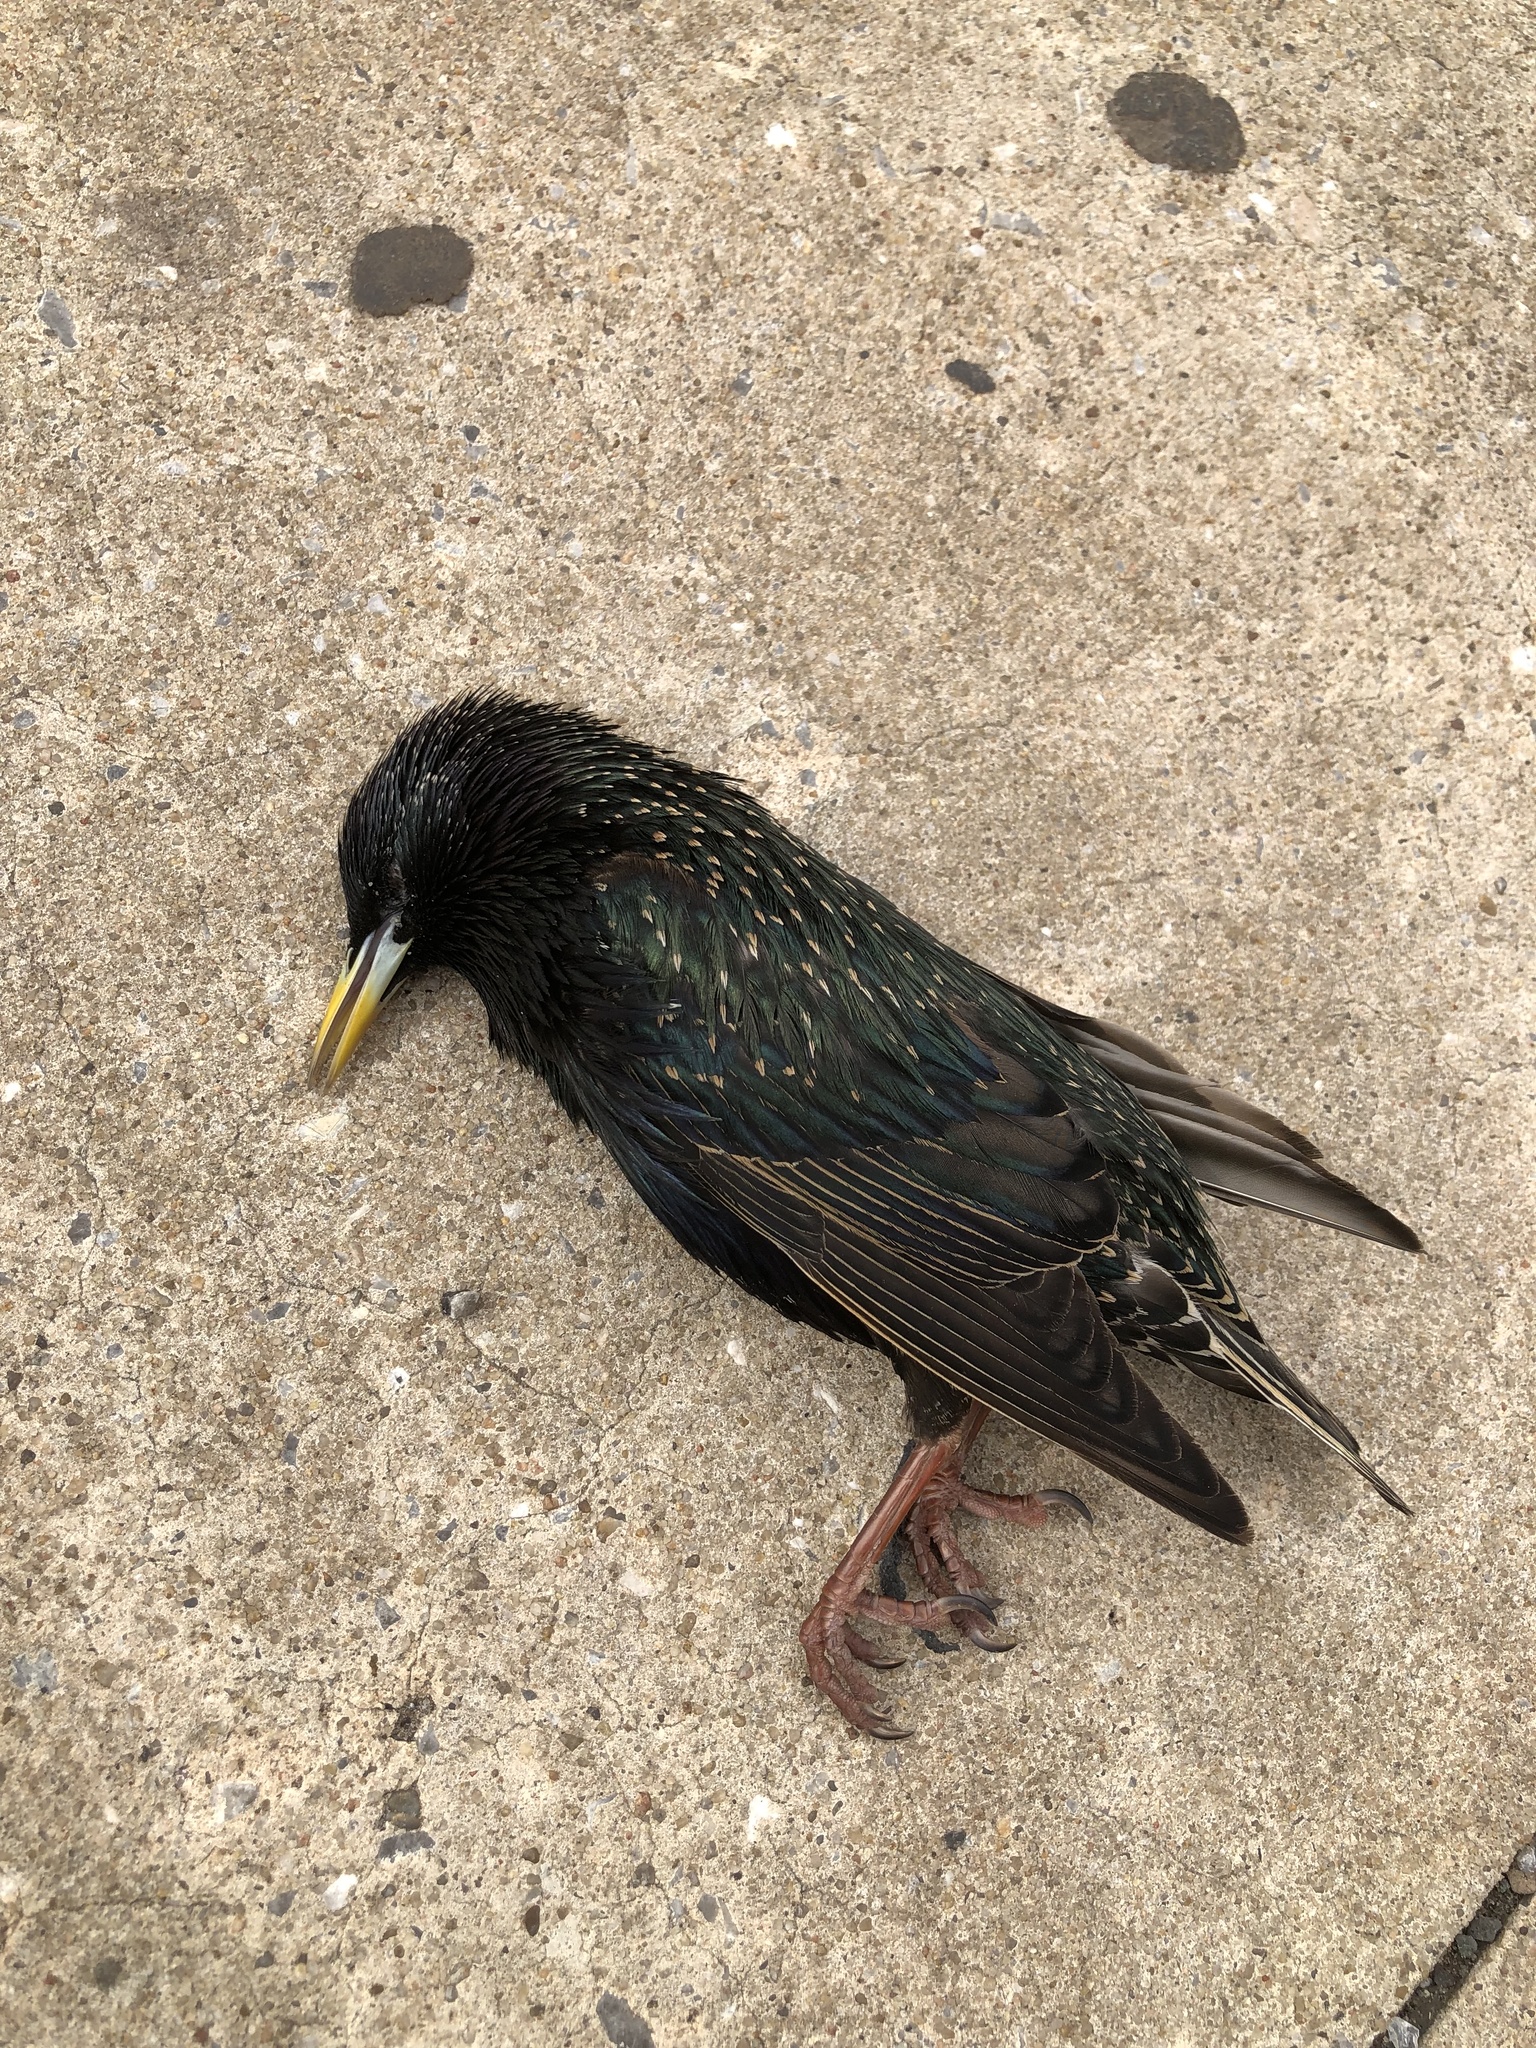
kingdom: Animalia
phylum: Chordata
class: Aves
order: Passeriformes
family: Sturnidae
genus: Sturnus
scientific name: Sturnus vulgaris
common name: Common starling
